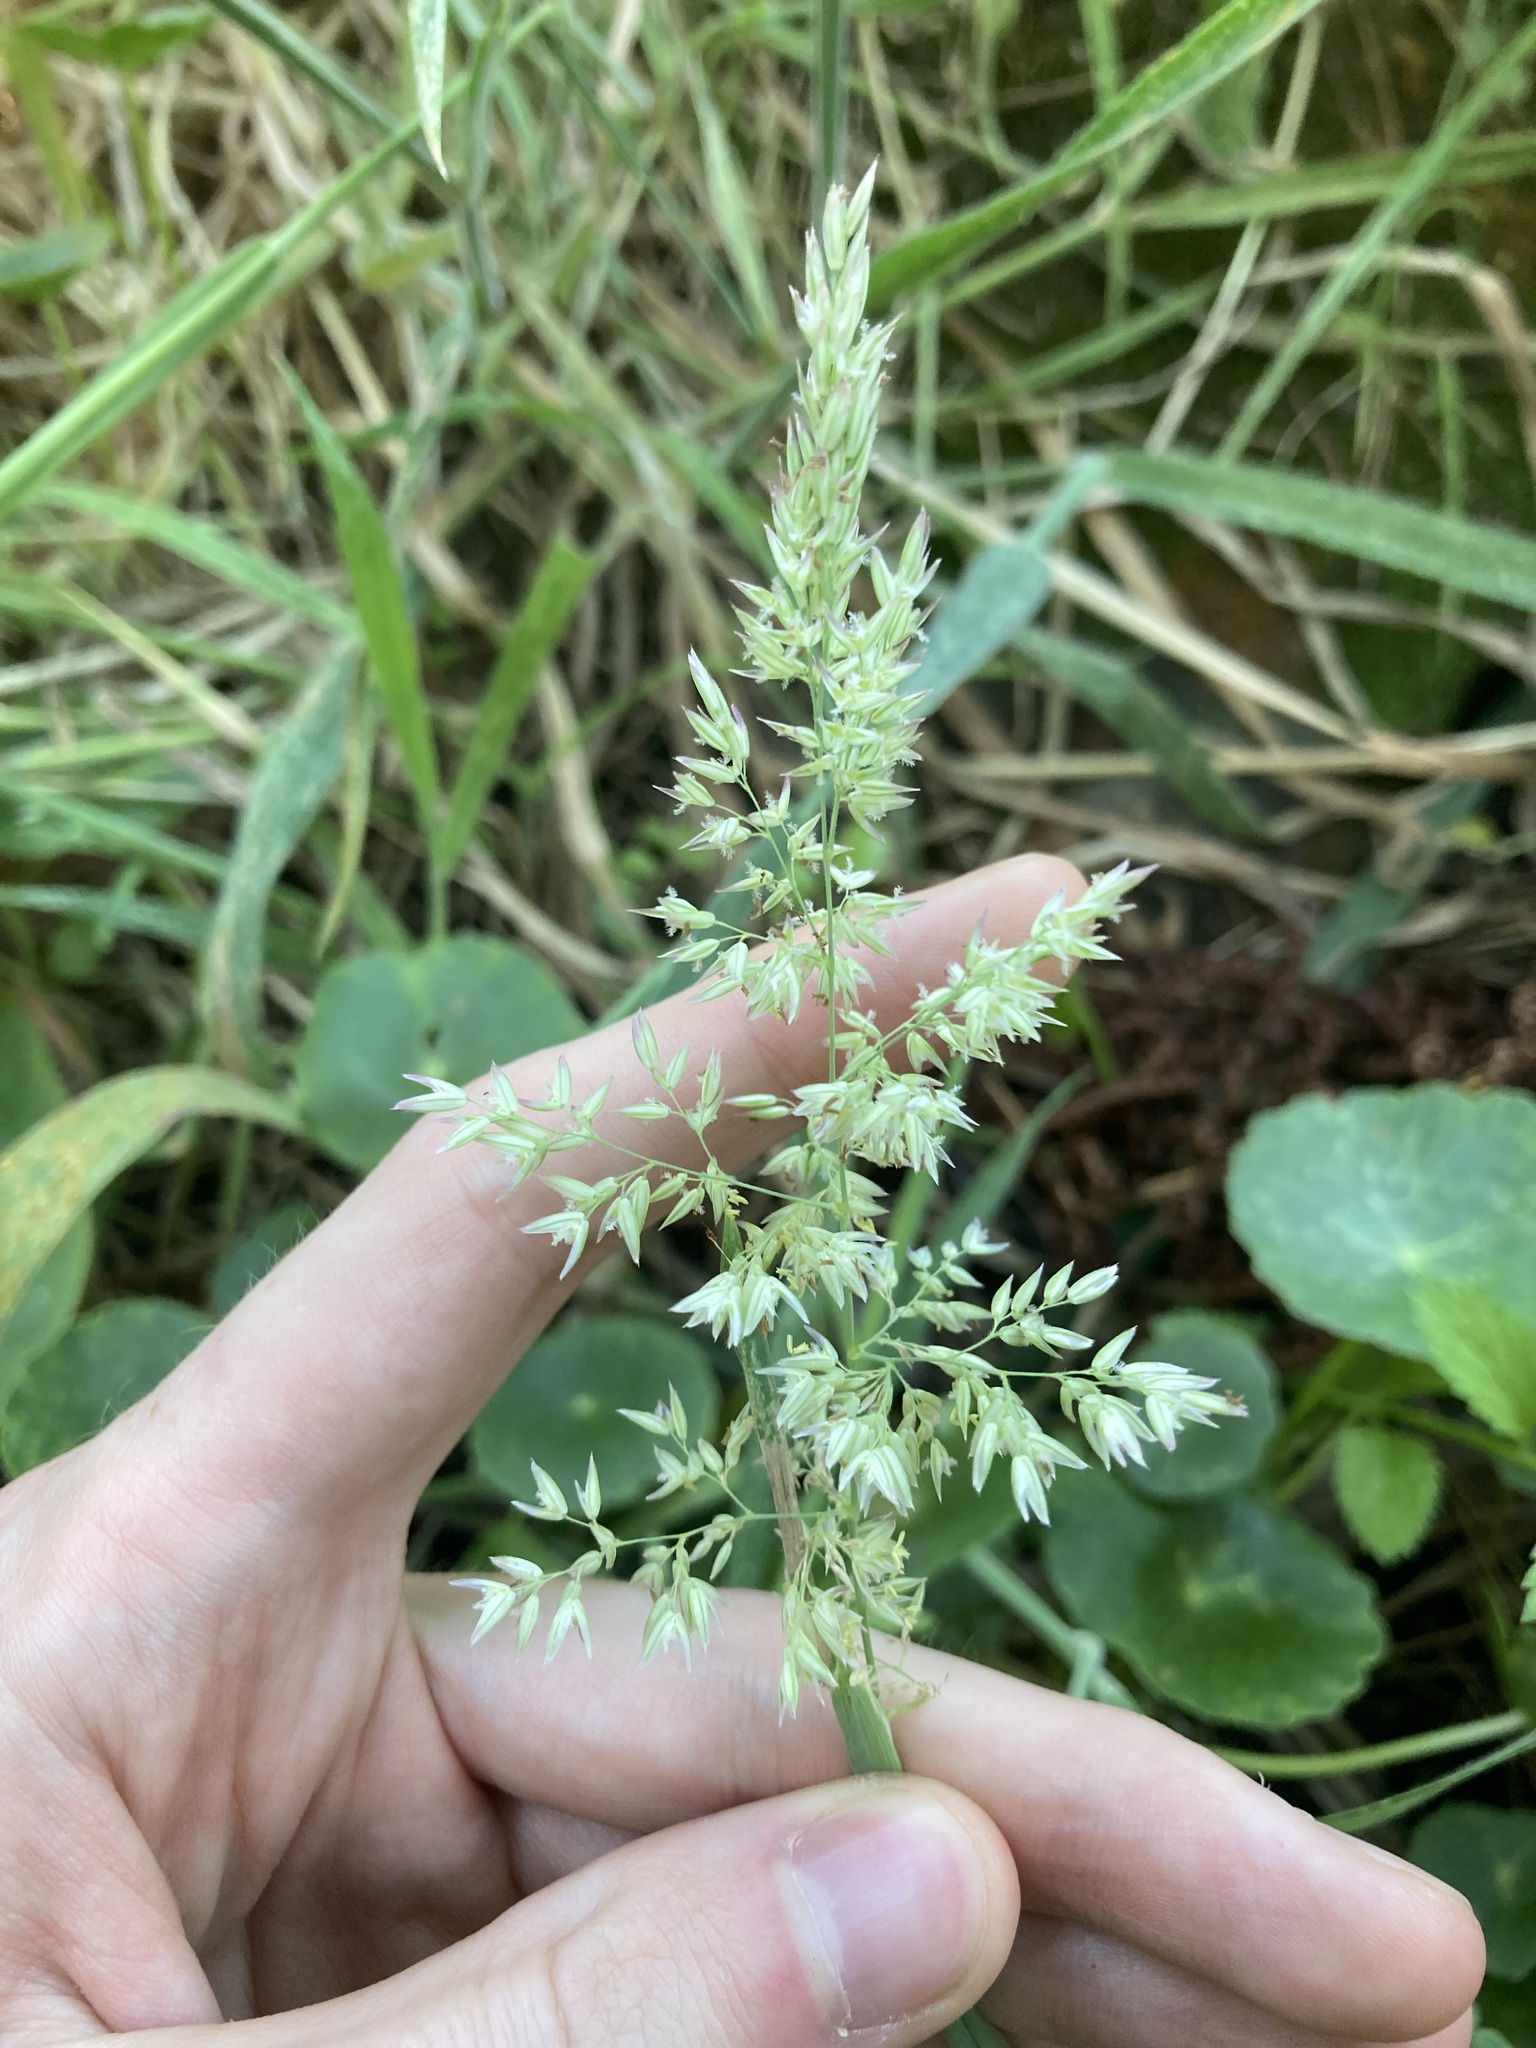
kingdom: Plantae
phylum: Tracheophyta
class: Liliopsida
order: Poales
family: Poaceae
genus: Holcus
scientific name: Holcus lanatus
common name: Yorkshire-fog
